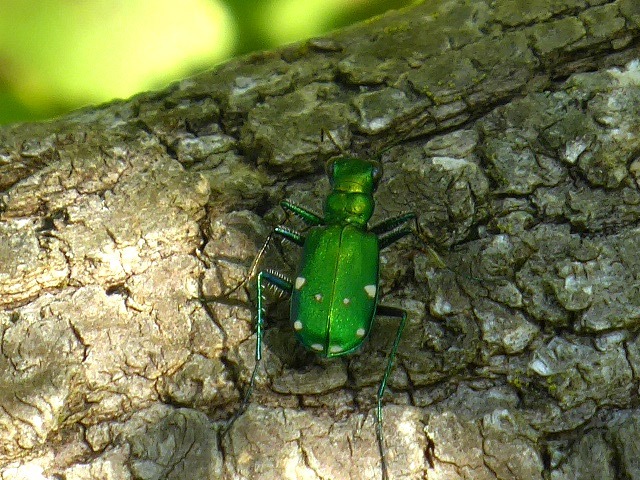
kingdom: Animalia
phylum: Arthropoda
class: Insecta
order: Coleoptera
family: Carabidae
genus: Cicindela
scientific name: Cicindela sexguttata
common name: Six-spotted tiger beetle
